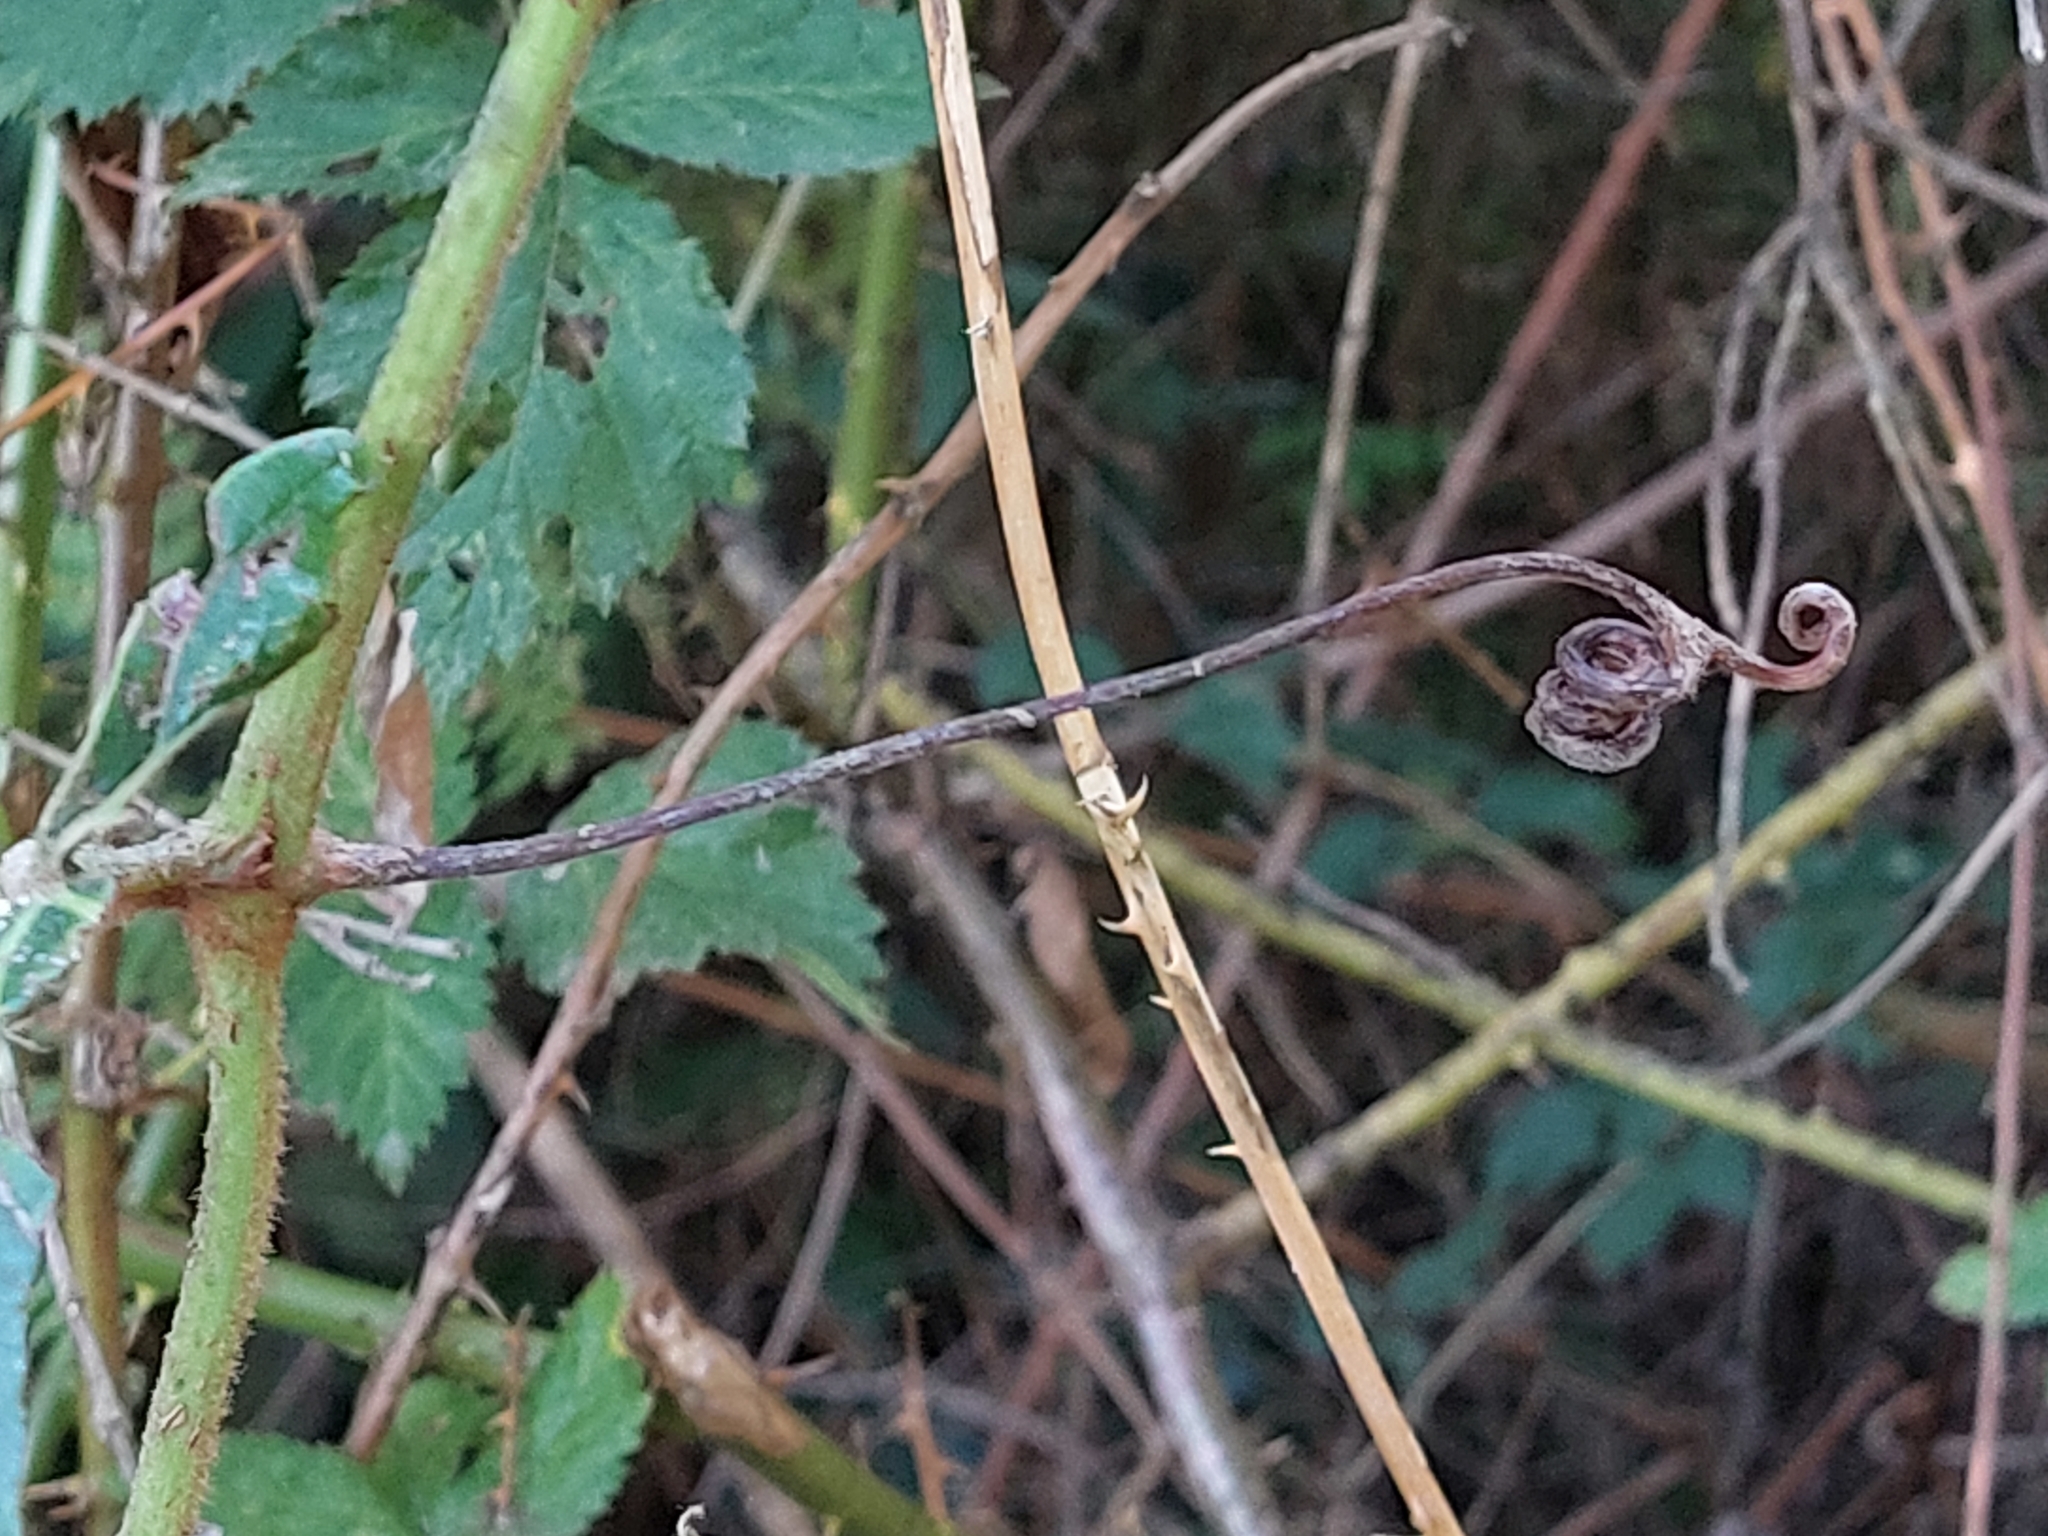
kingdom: Plantae
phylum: Tracheophyta
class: Magnoliopsida
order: Vitales
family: Vitaceae
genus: Rhoicissus
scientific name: Rhoicissus tomentosa
